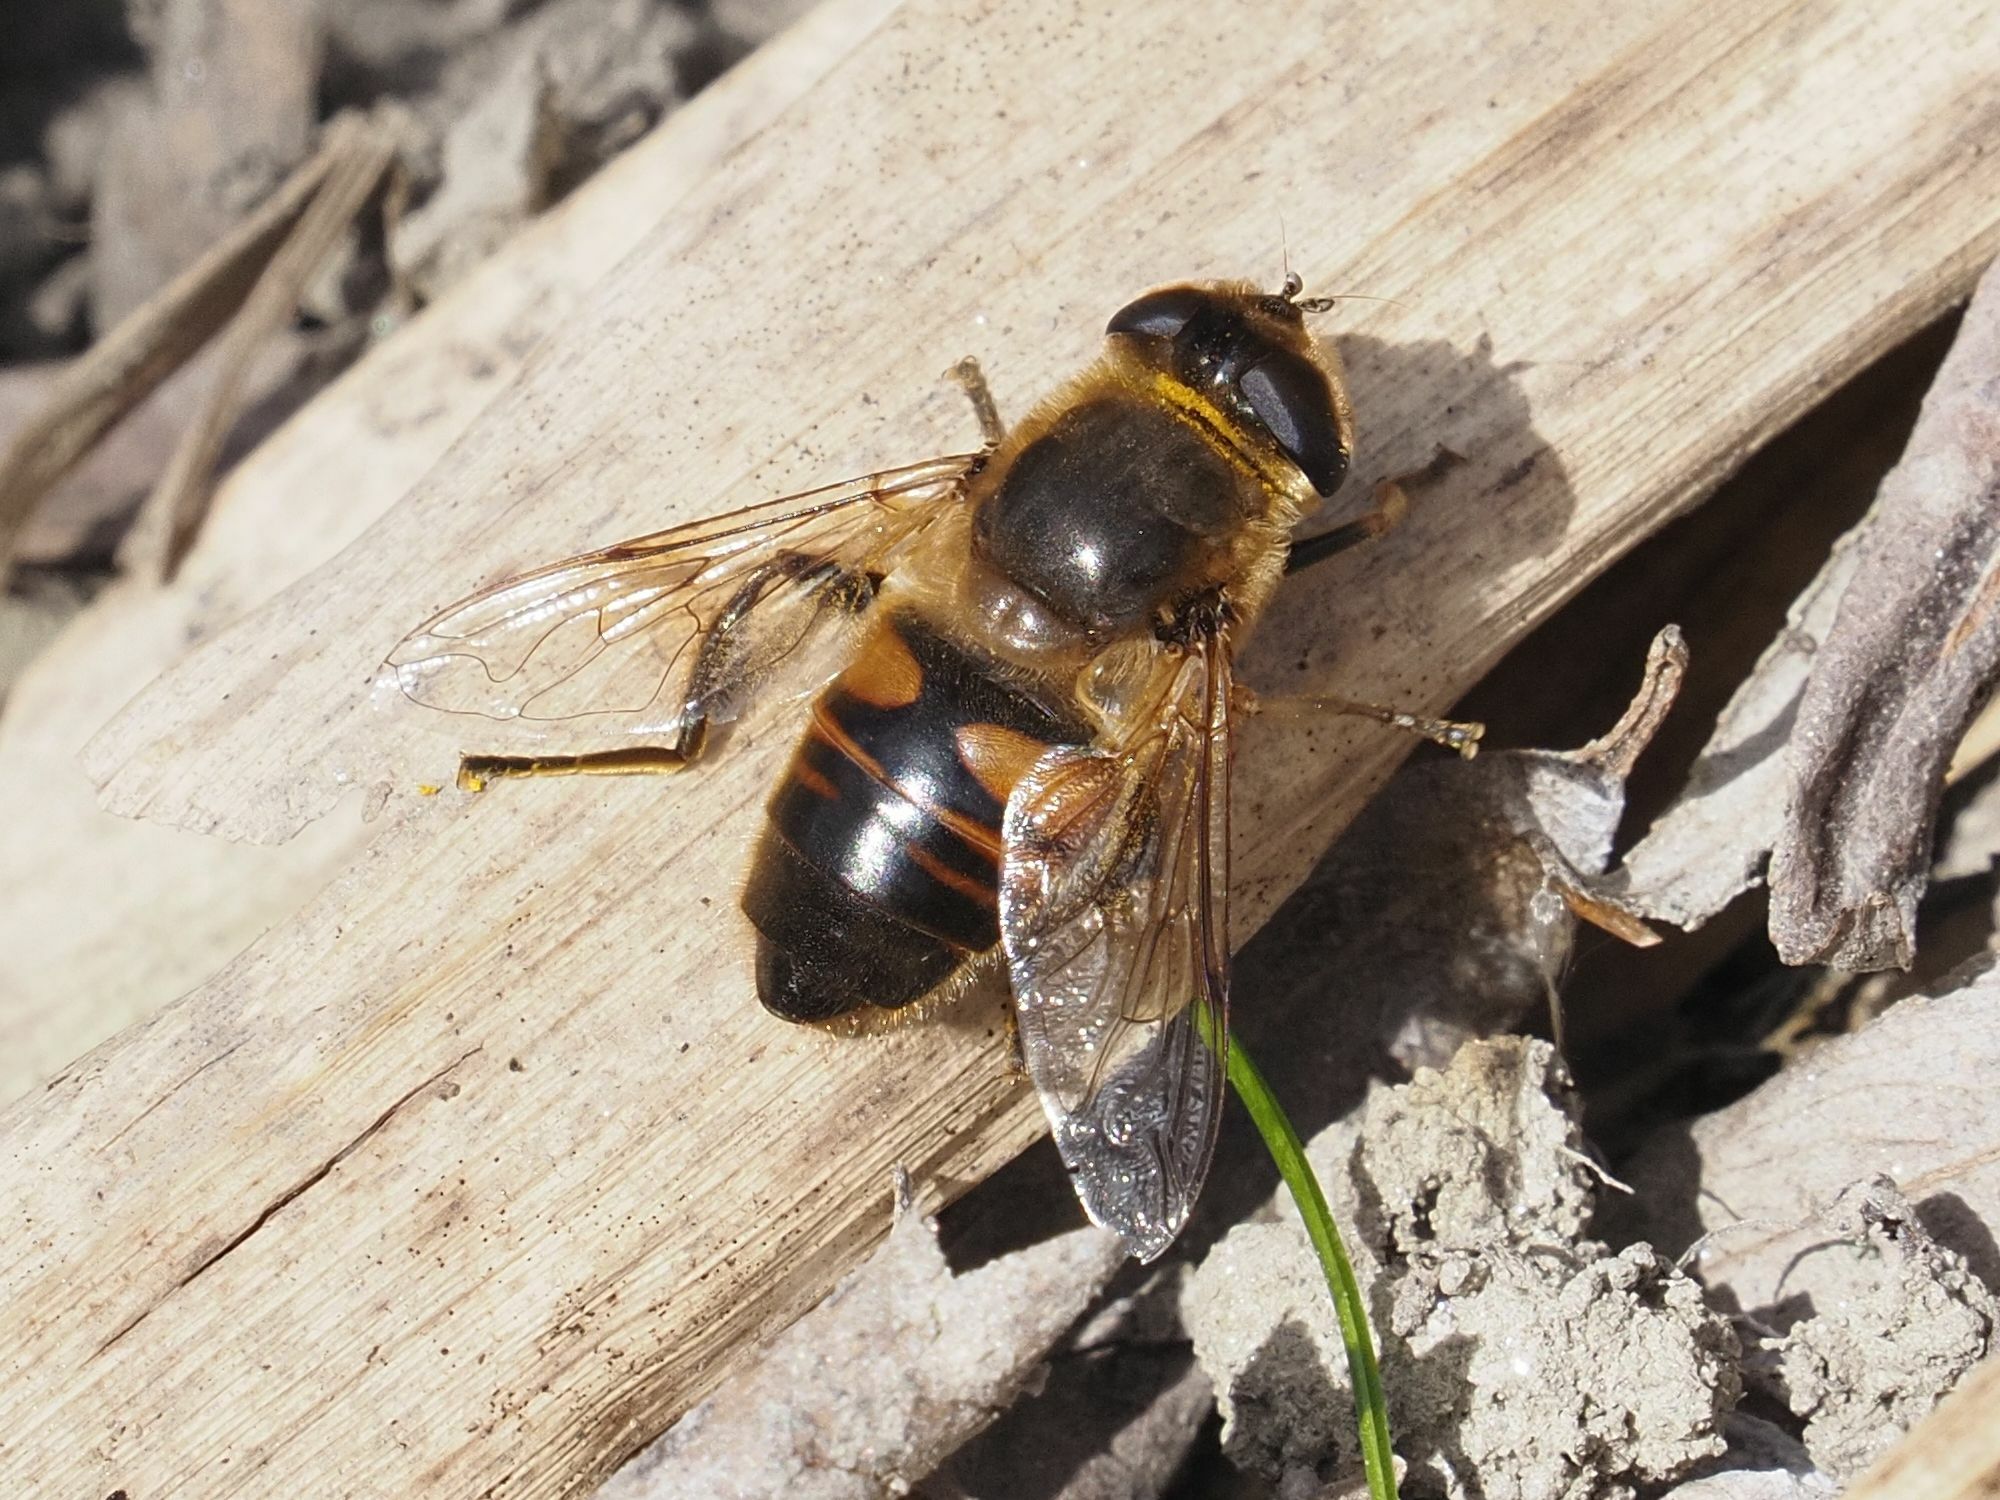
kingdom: Animalia
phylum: Arthropoda
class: Insecta
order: Diptera
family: Syrphidae
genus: Eristalis
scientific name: Eristalis tenax
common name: Drone fly
